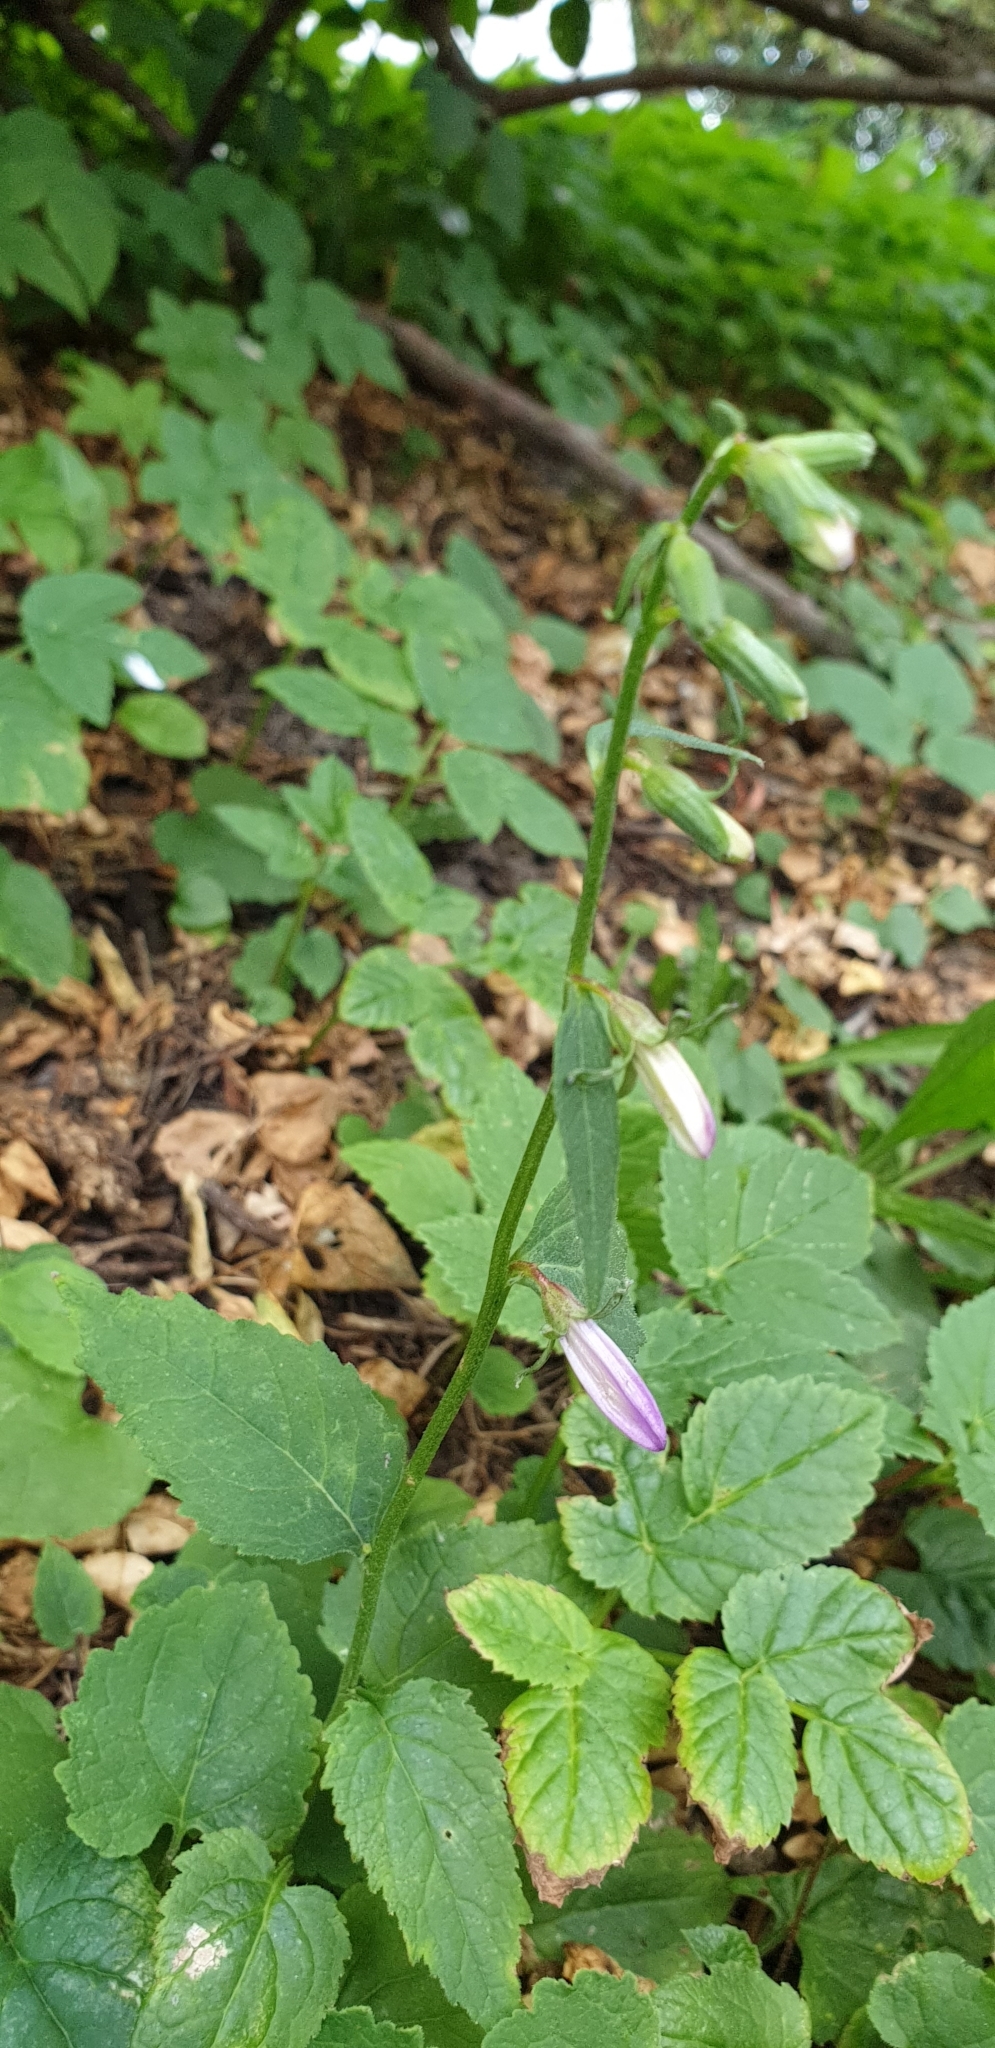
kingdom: Plantae
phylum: Tracheophyta
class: Magnoliopsida
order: Asterales
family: Campanulaceae
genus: Campanula
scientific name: Campanula trachelium
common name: Nettle-leaved bellflower
